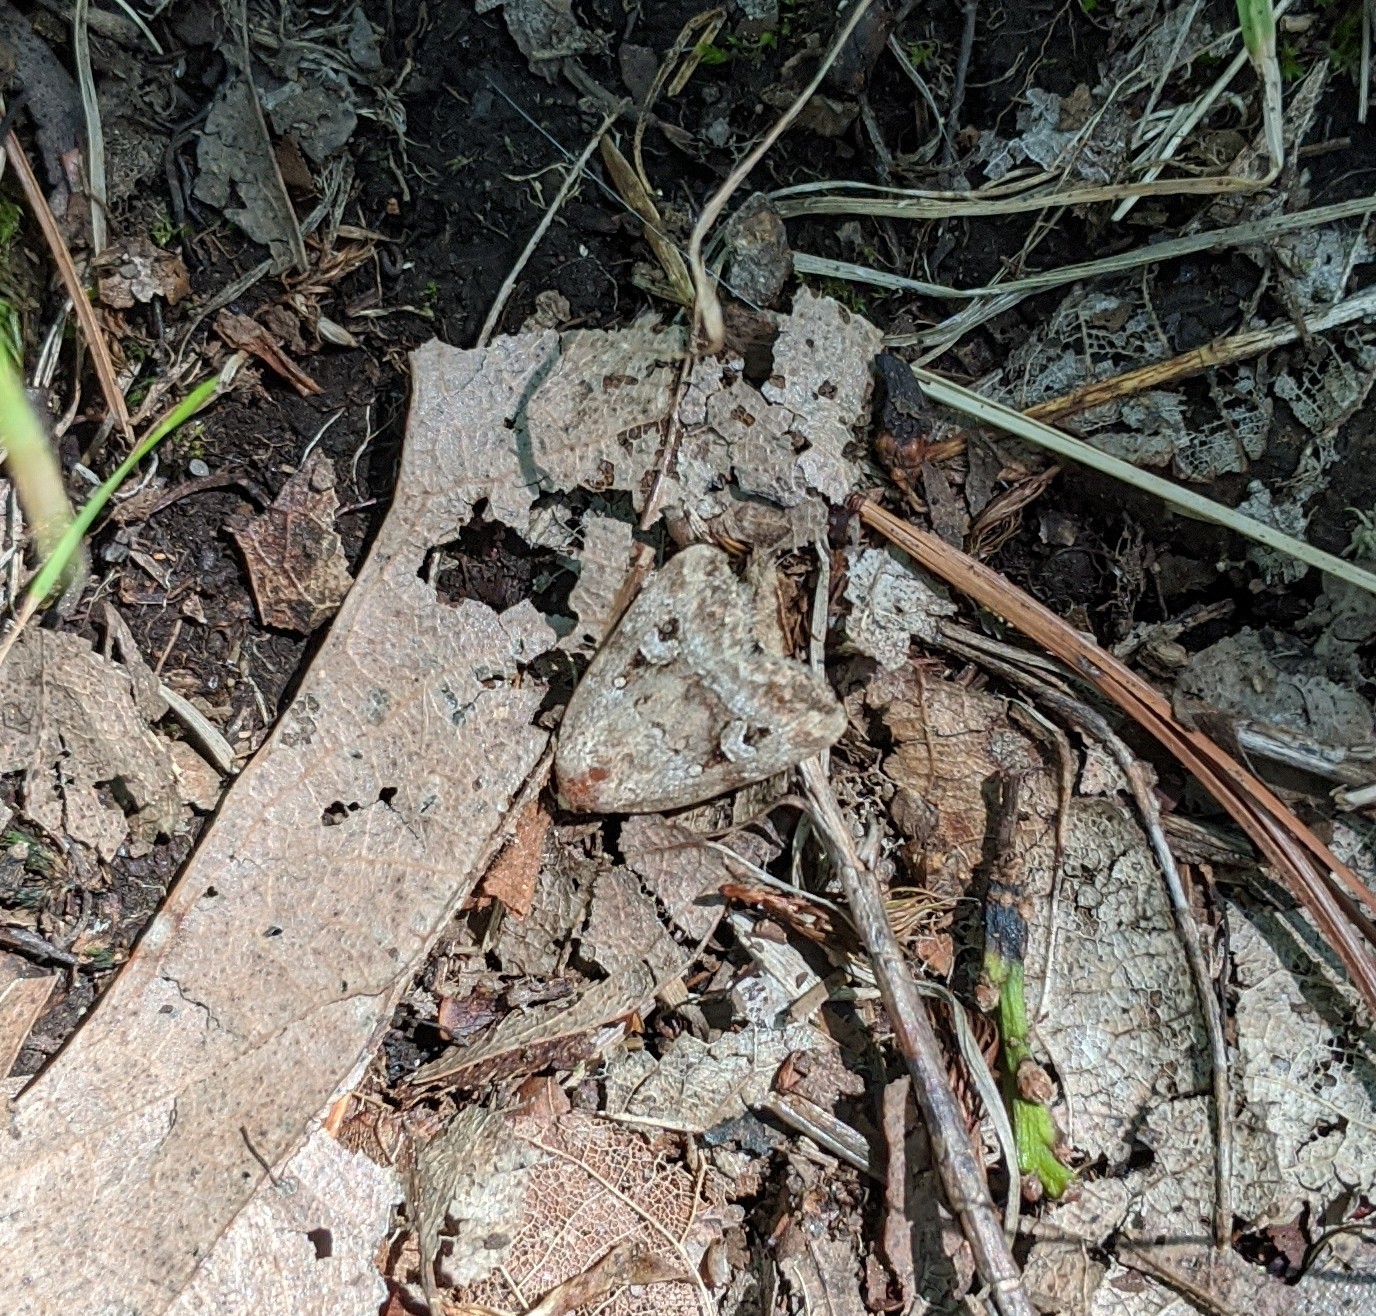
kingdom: Animalia
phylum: Arthropoda
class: Insecta
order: Lepidoptera
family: Noctuidae
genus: Elaphria
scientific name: Elaphria alapallida
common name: Pale-winged midget
